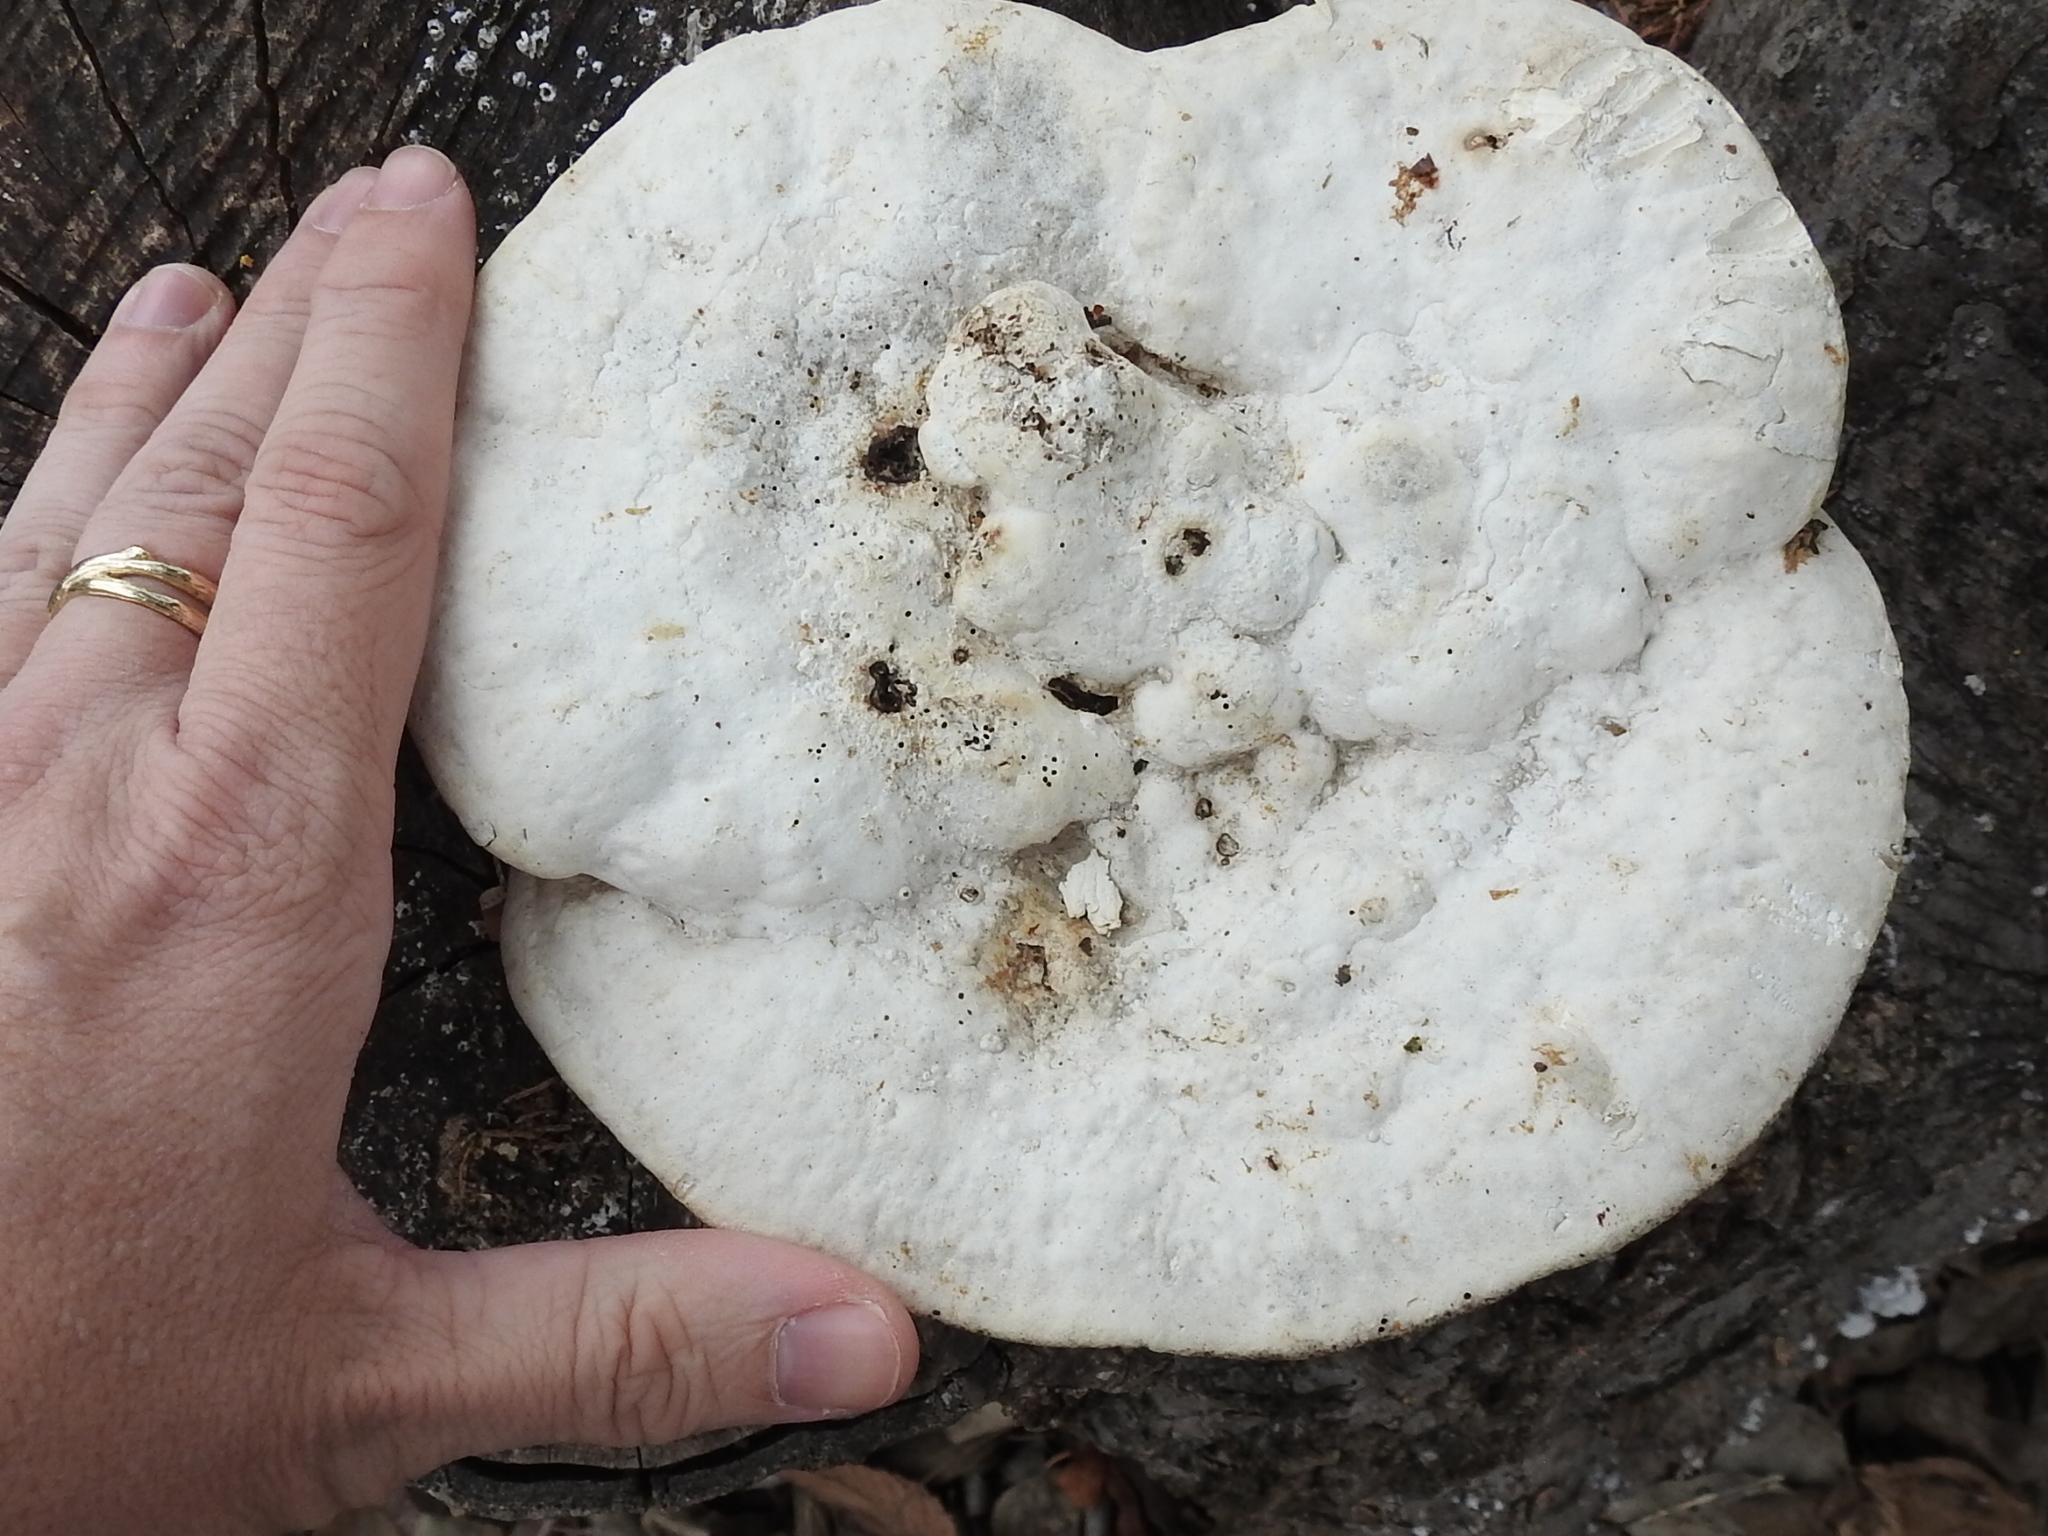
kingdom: Fungi
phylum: Basidiomycota
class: Agaricomycetes
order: Polyporales
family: Polyporaceae
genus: Trametes
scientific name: Trametes gibbosa
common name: Lumpy bracket
